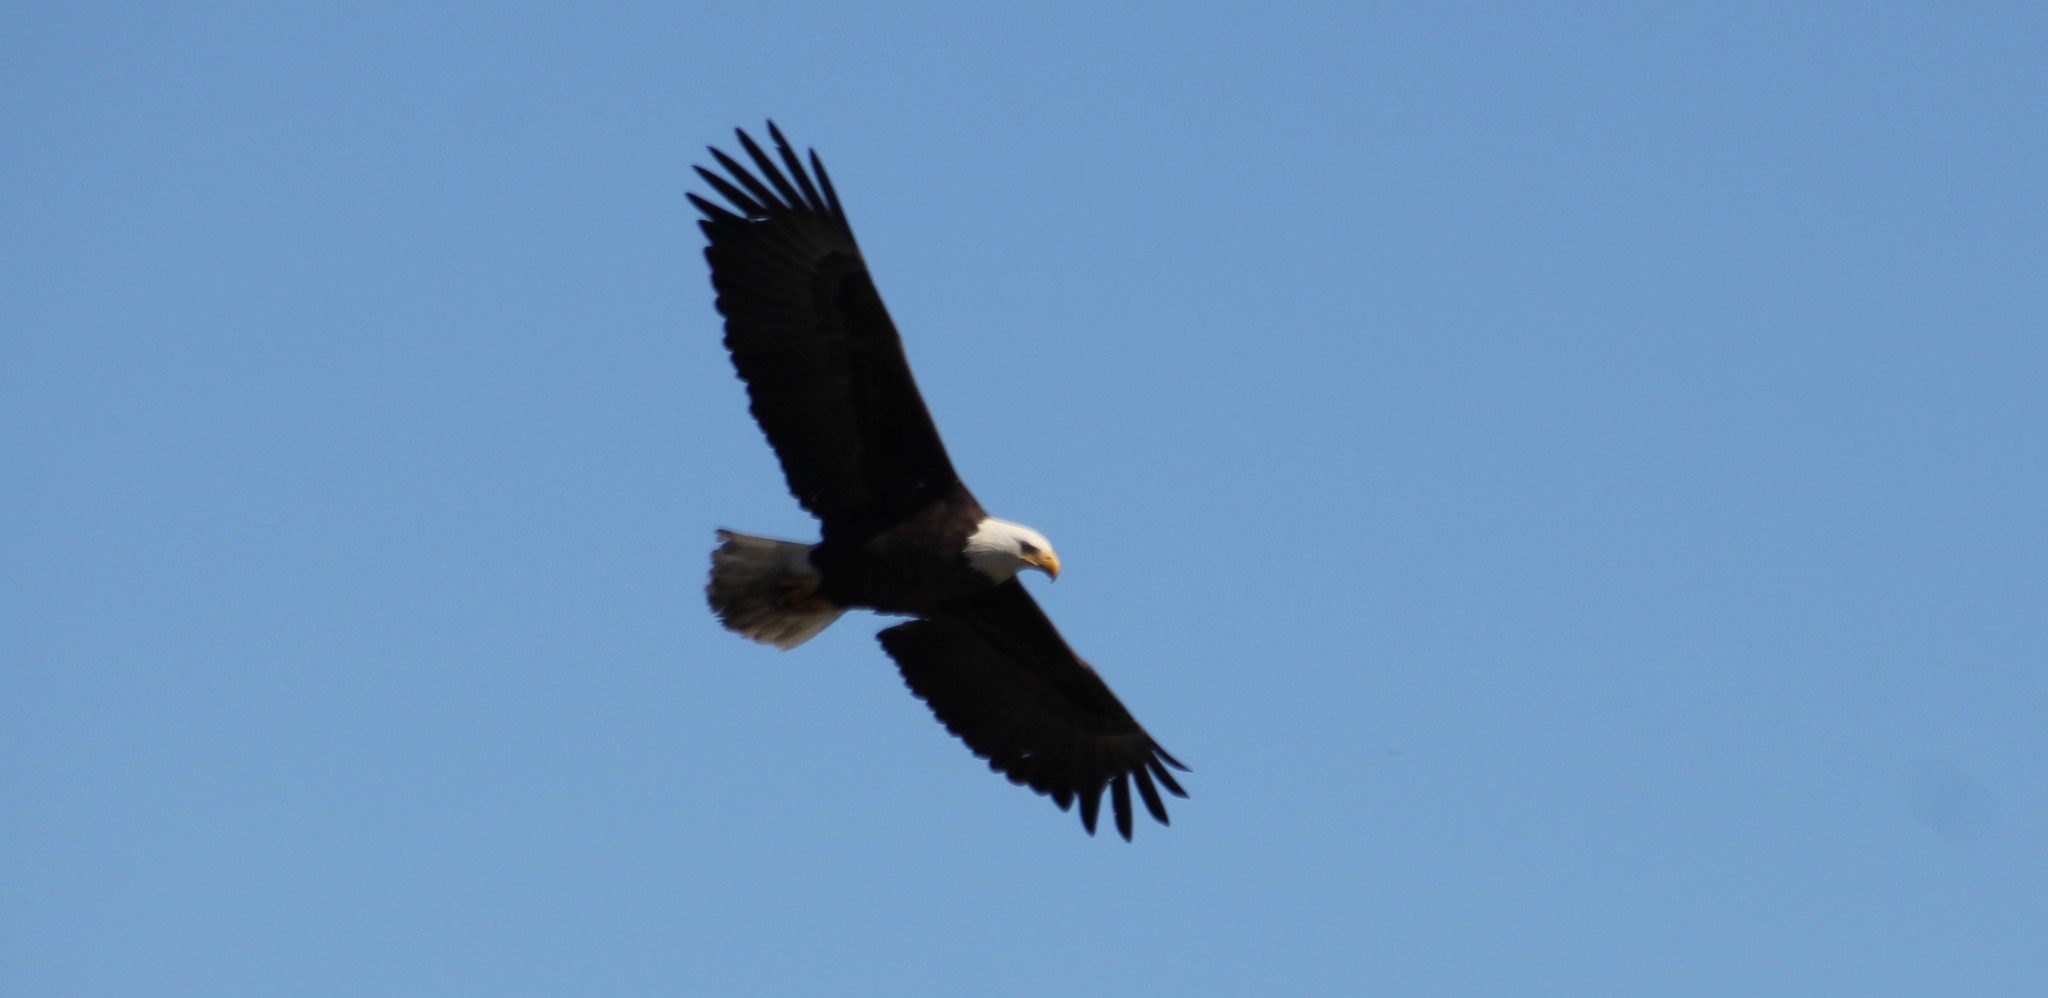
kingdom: Animalia
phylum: Chordata
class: Aves
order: Accipitriformes
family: Accipitridae
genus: Haliaeetus
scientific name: Haliaeetus leucocephalus
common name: Bald eagle
